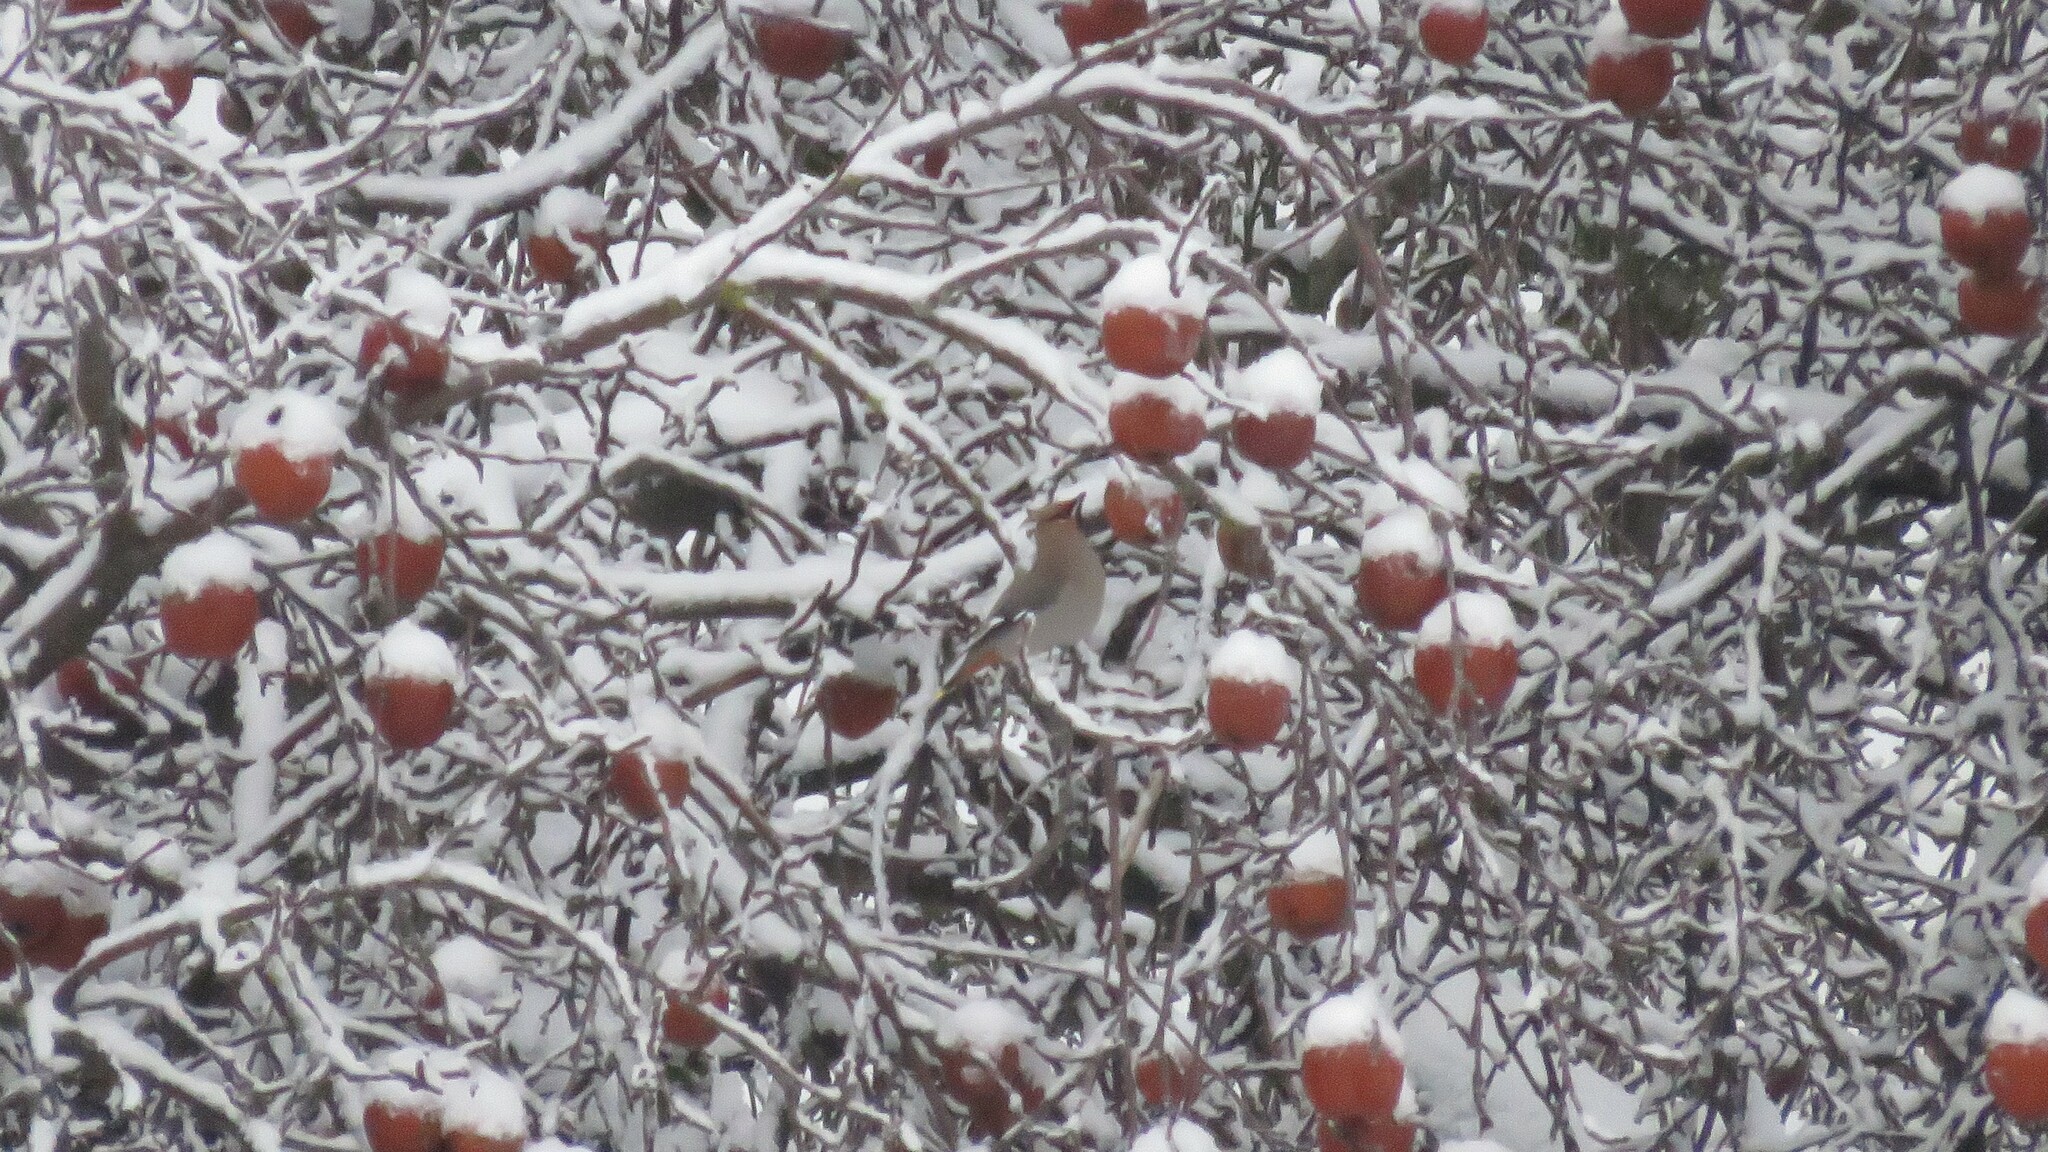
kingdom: Animalia
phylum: Chordata
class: Aves
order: Passeriformes
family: Bombycillidae
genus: Bombycilla
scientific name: Bombycilla garrulus
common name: Bohemian waxwing
